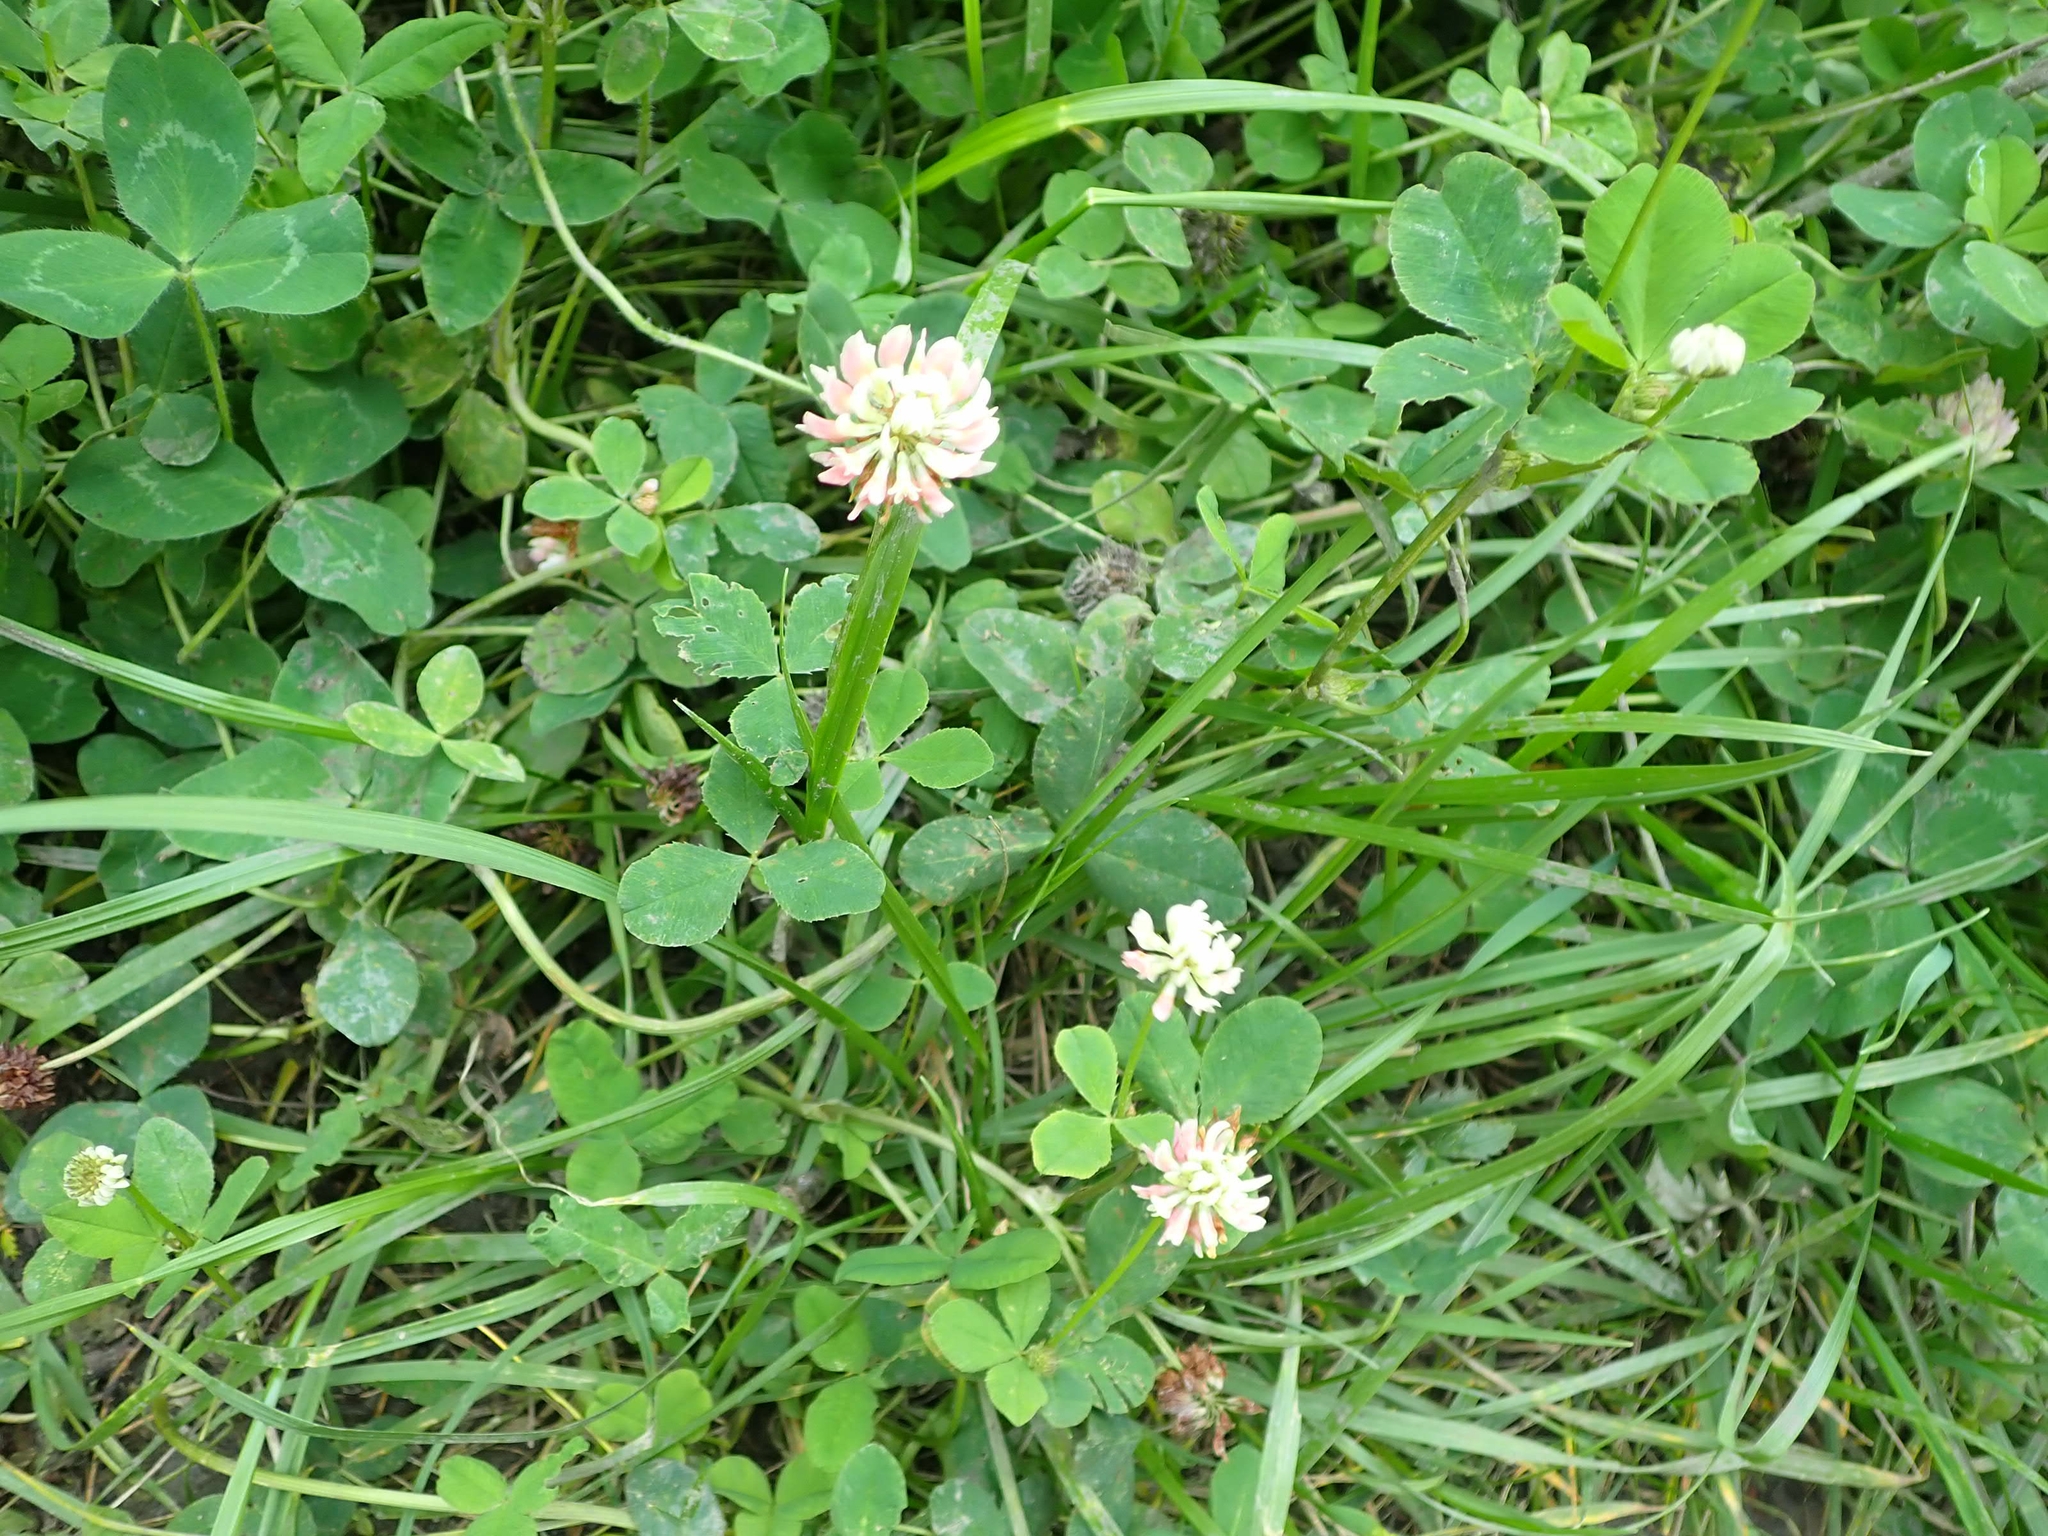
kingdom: Plantae
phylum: Tracheophyta
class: Magnoliopsida
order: Fabales
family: Fabaceae
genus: Trifolium
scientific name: Trifolium hybridum
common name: Alsike clover
